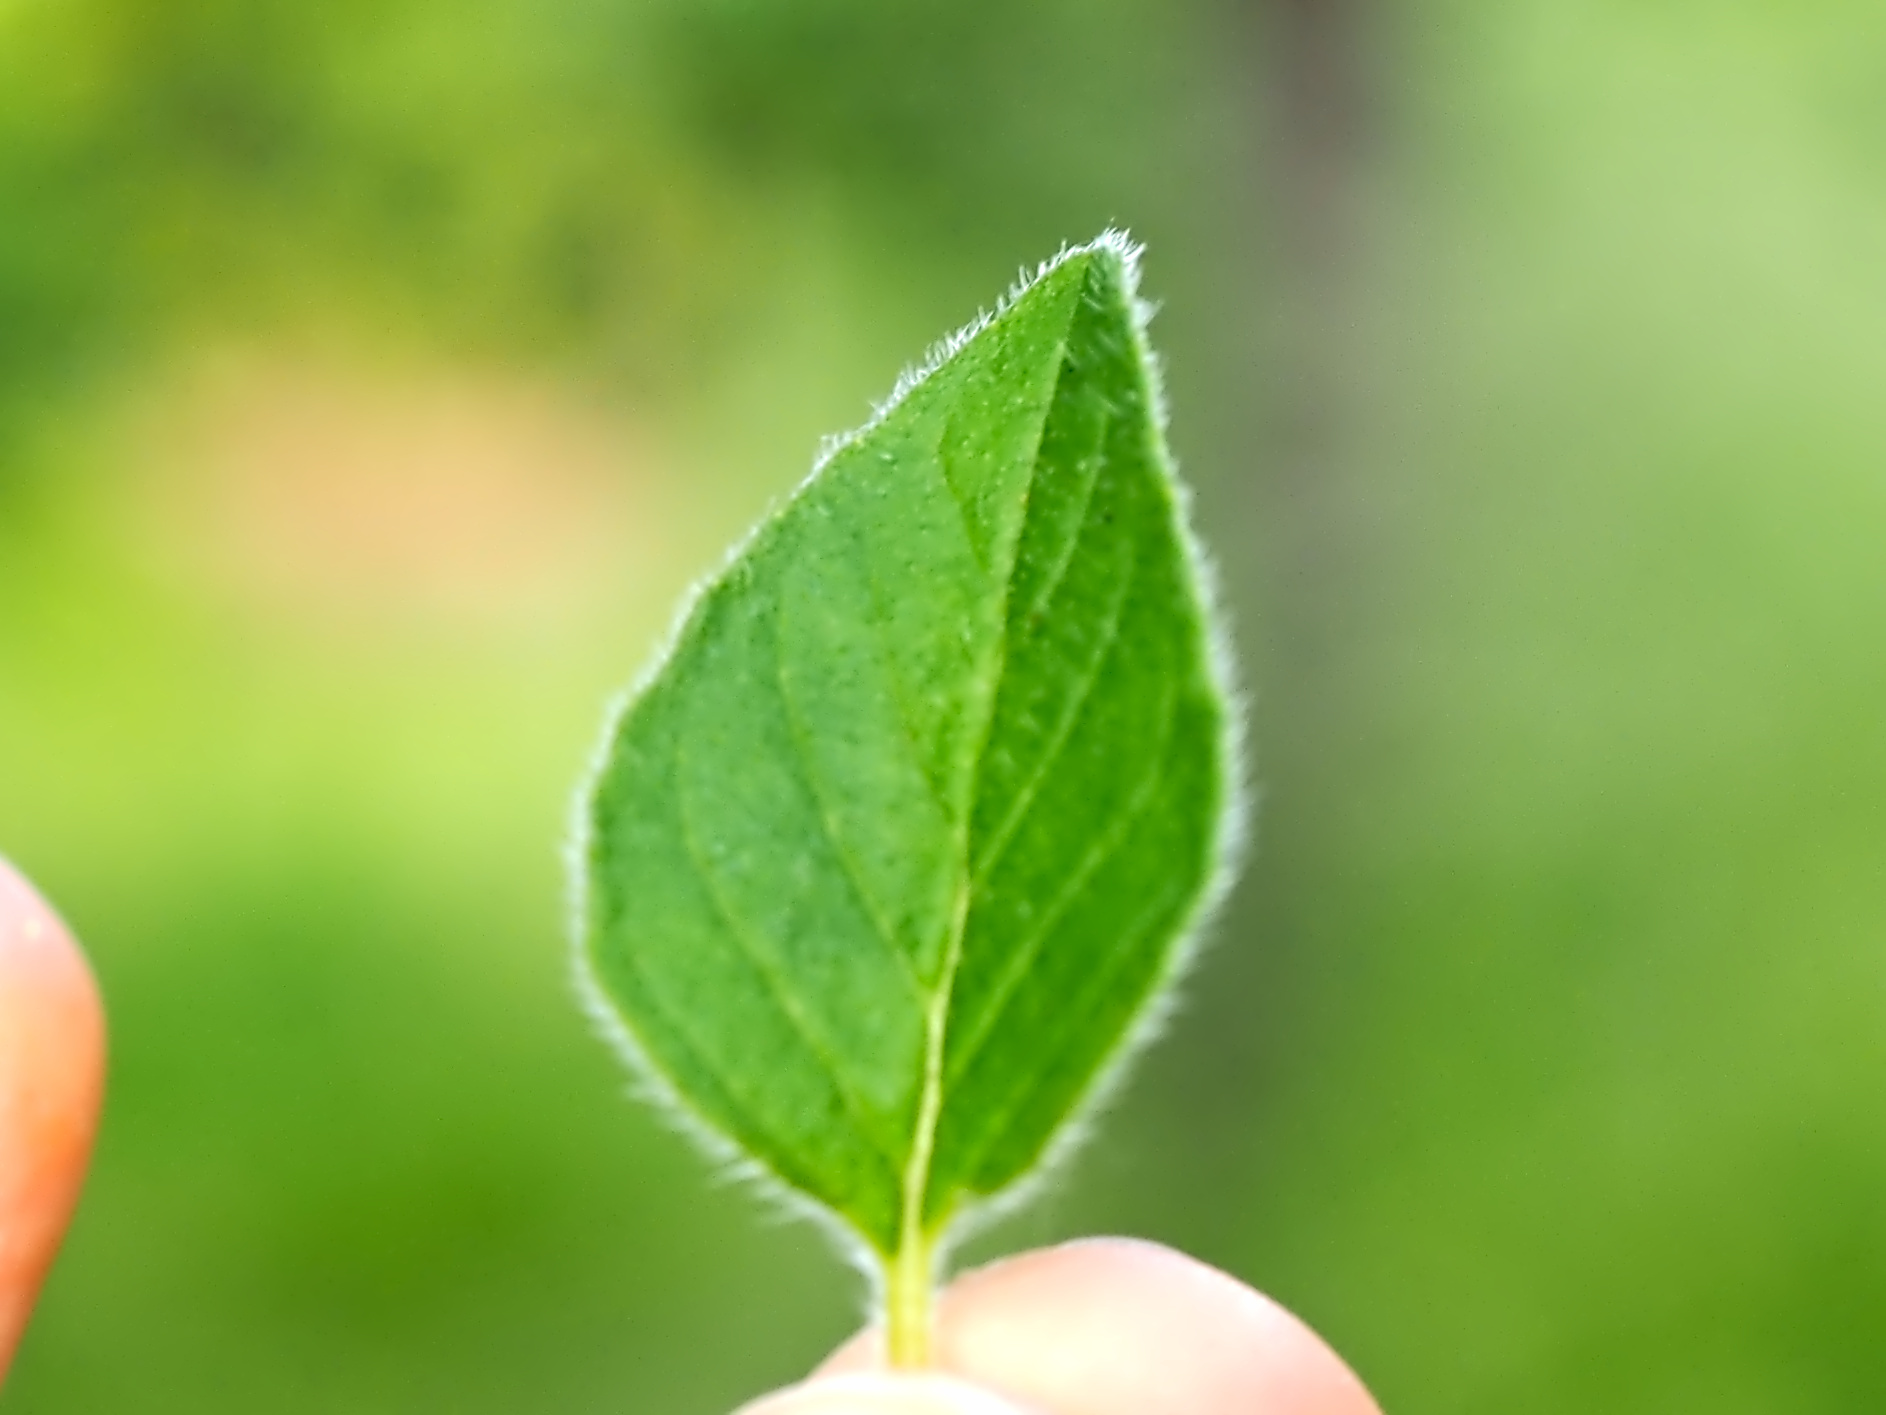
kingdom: Plantae
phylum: Tracheophyta
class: Magnoliopsida
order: Lamiales
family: Lamiaceae
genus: Origanum
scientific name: Origanum vulgare
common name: Wild marjoram
